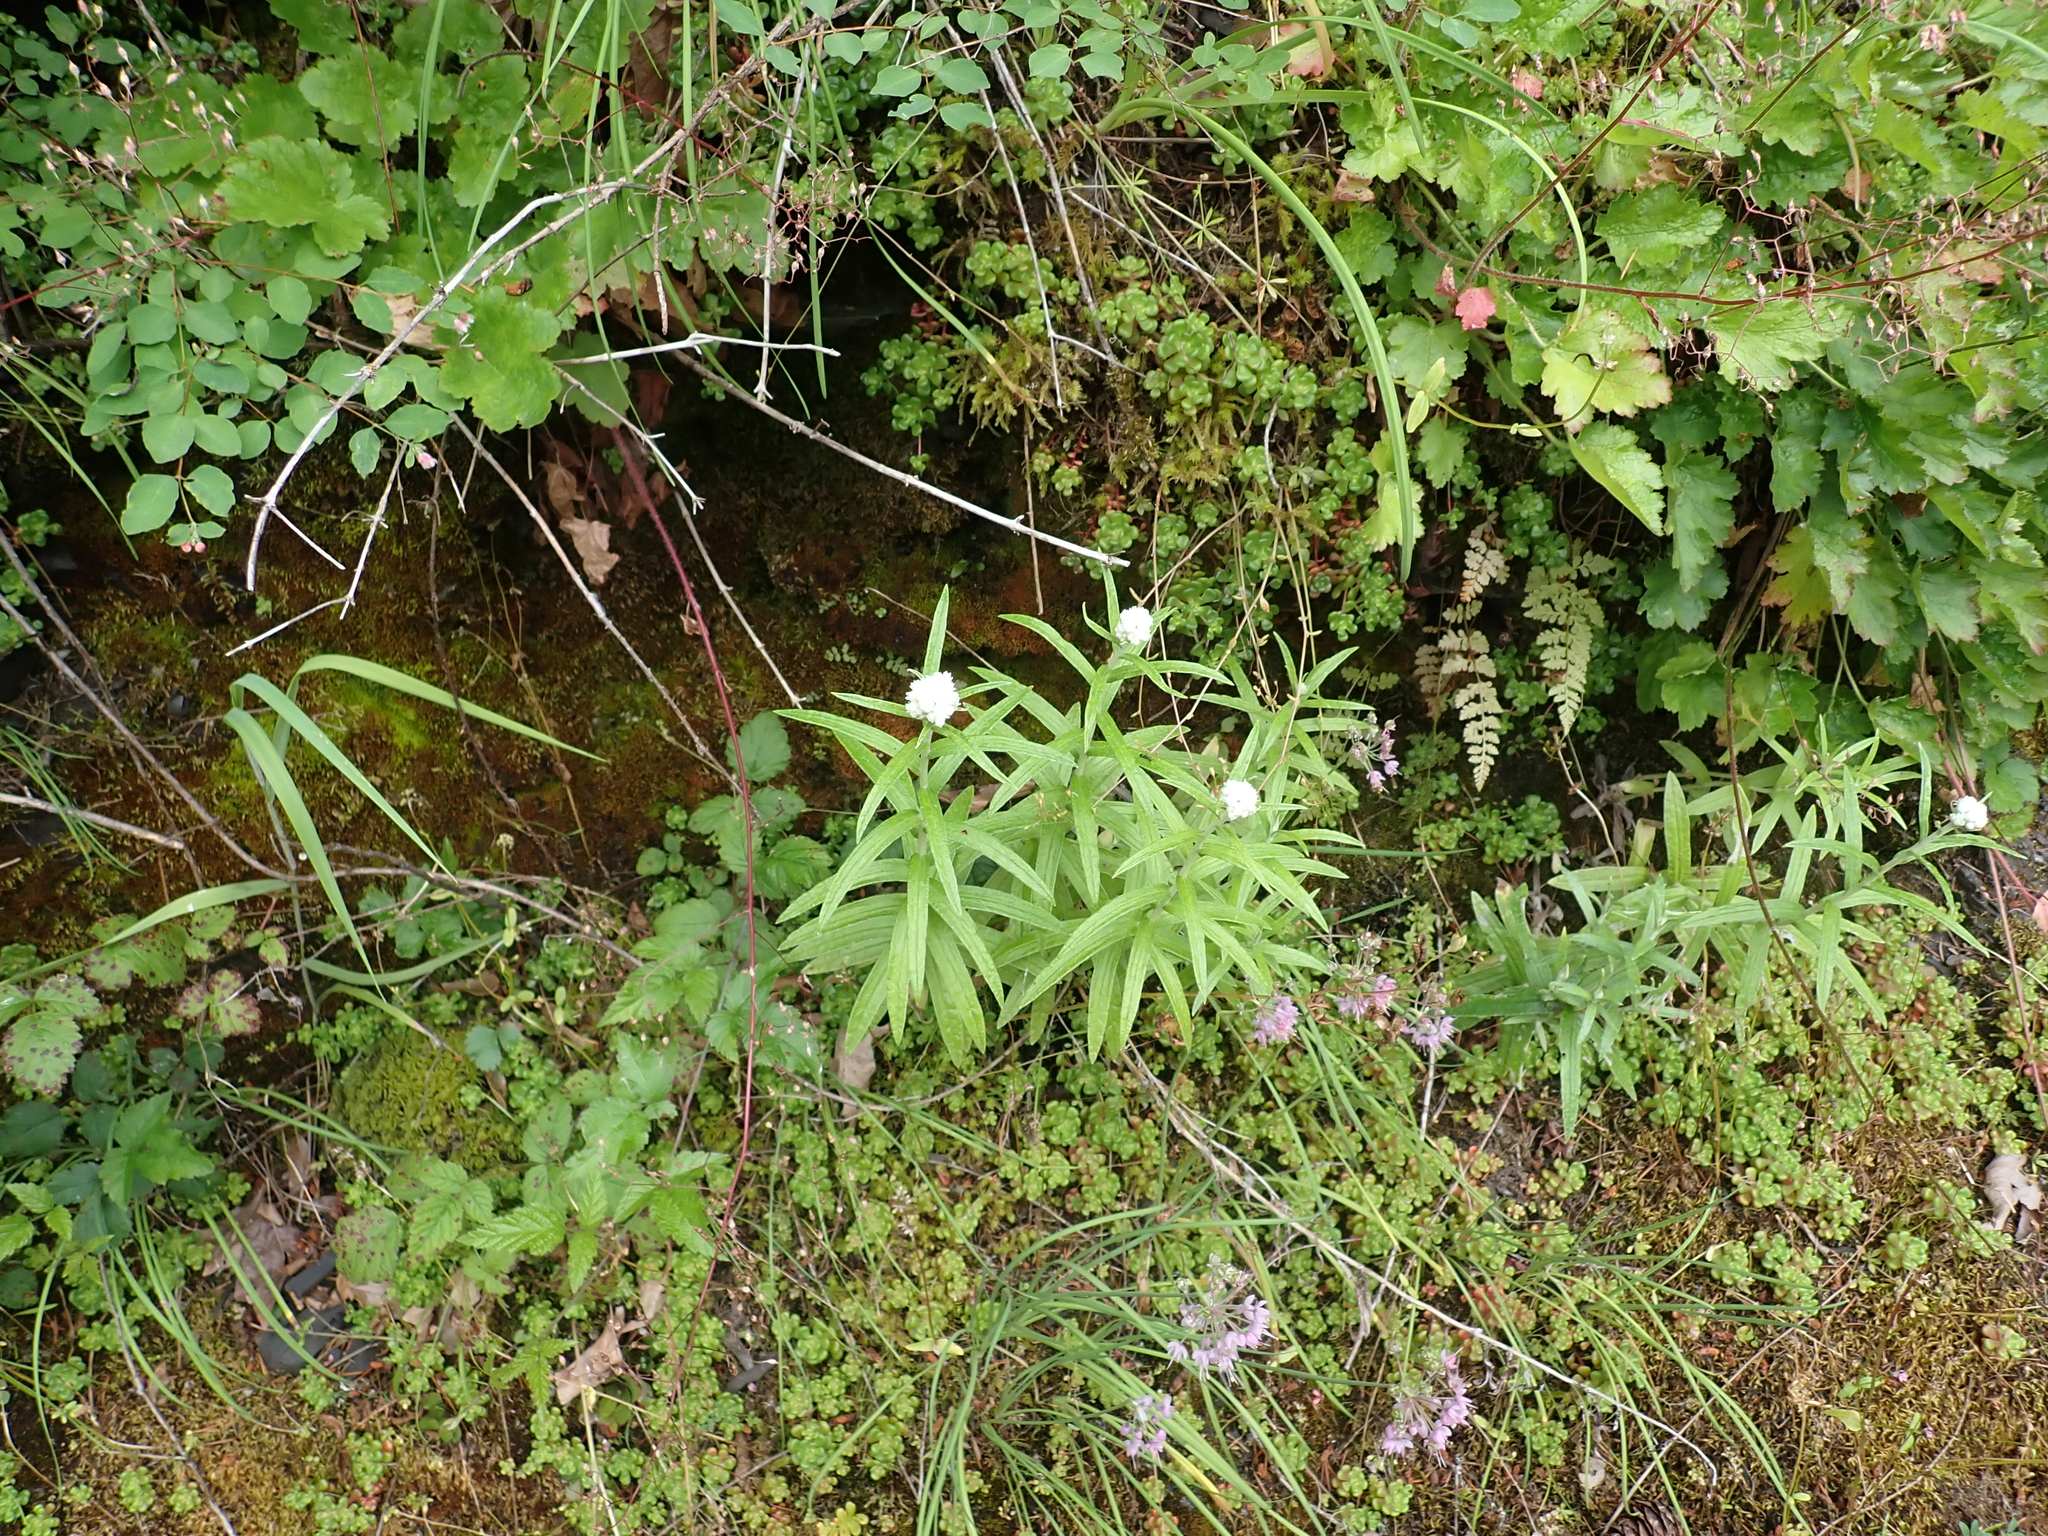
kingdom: Plantae
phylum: Tracheophyta
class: Magnoliopsida
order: Asterales
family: Asteraceae
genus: Anaphalis
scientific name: Anaphalis margaritacea
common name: Pearly everlasting
